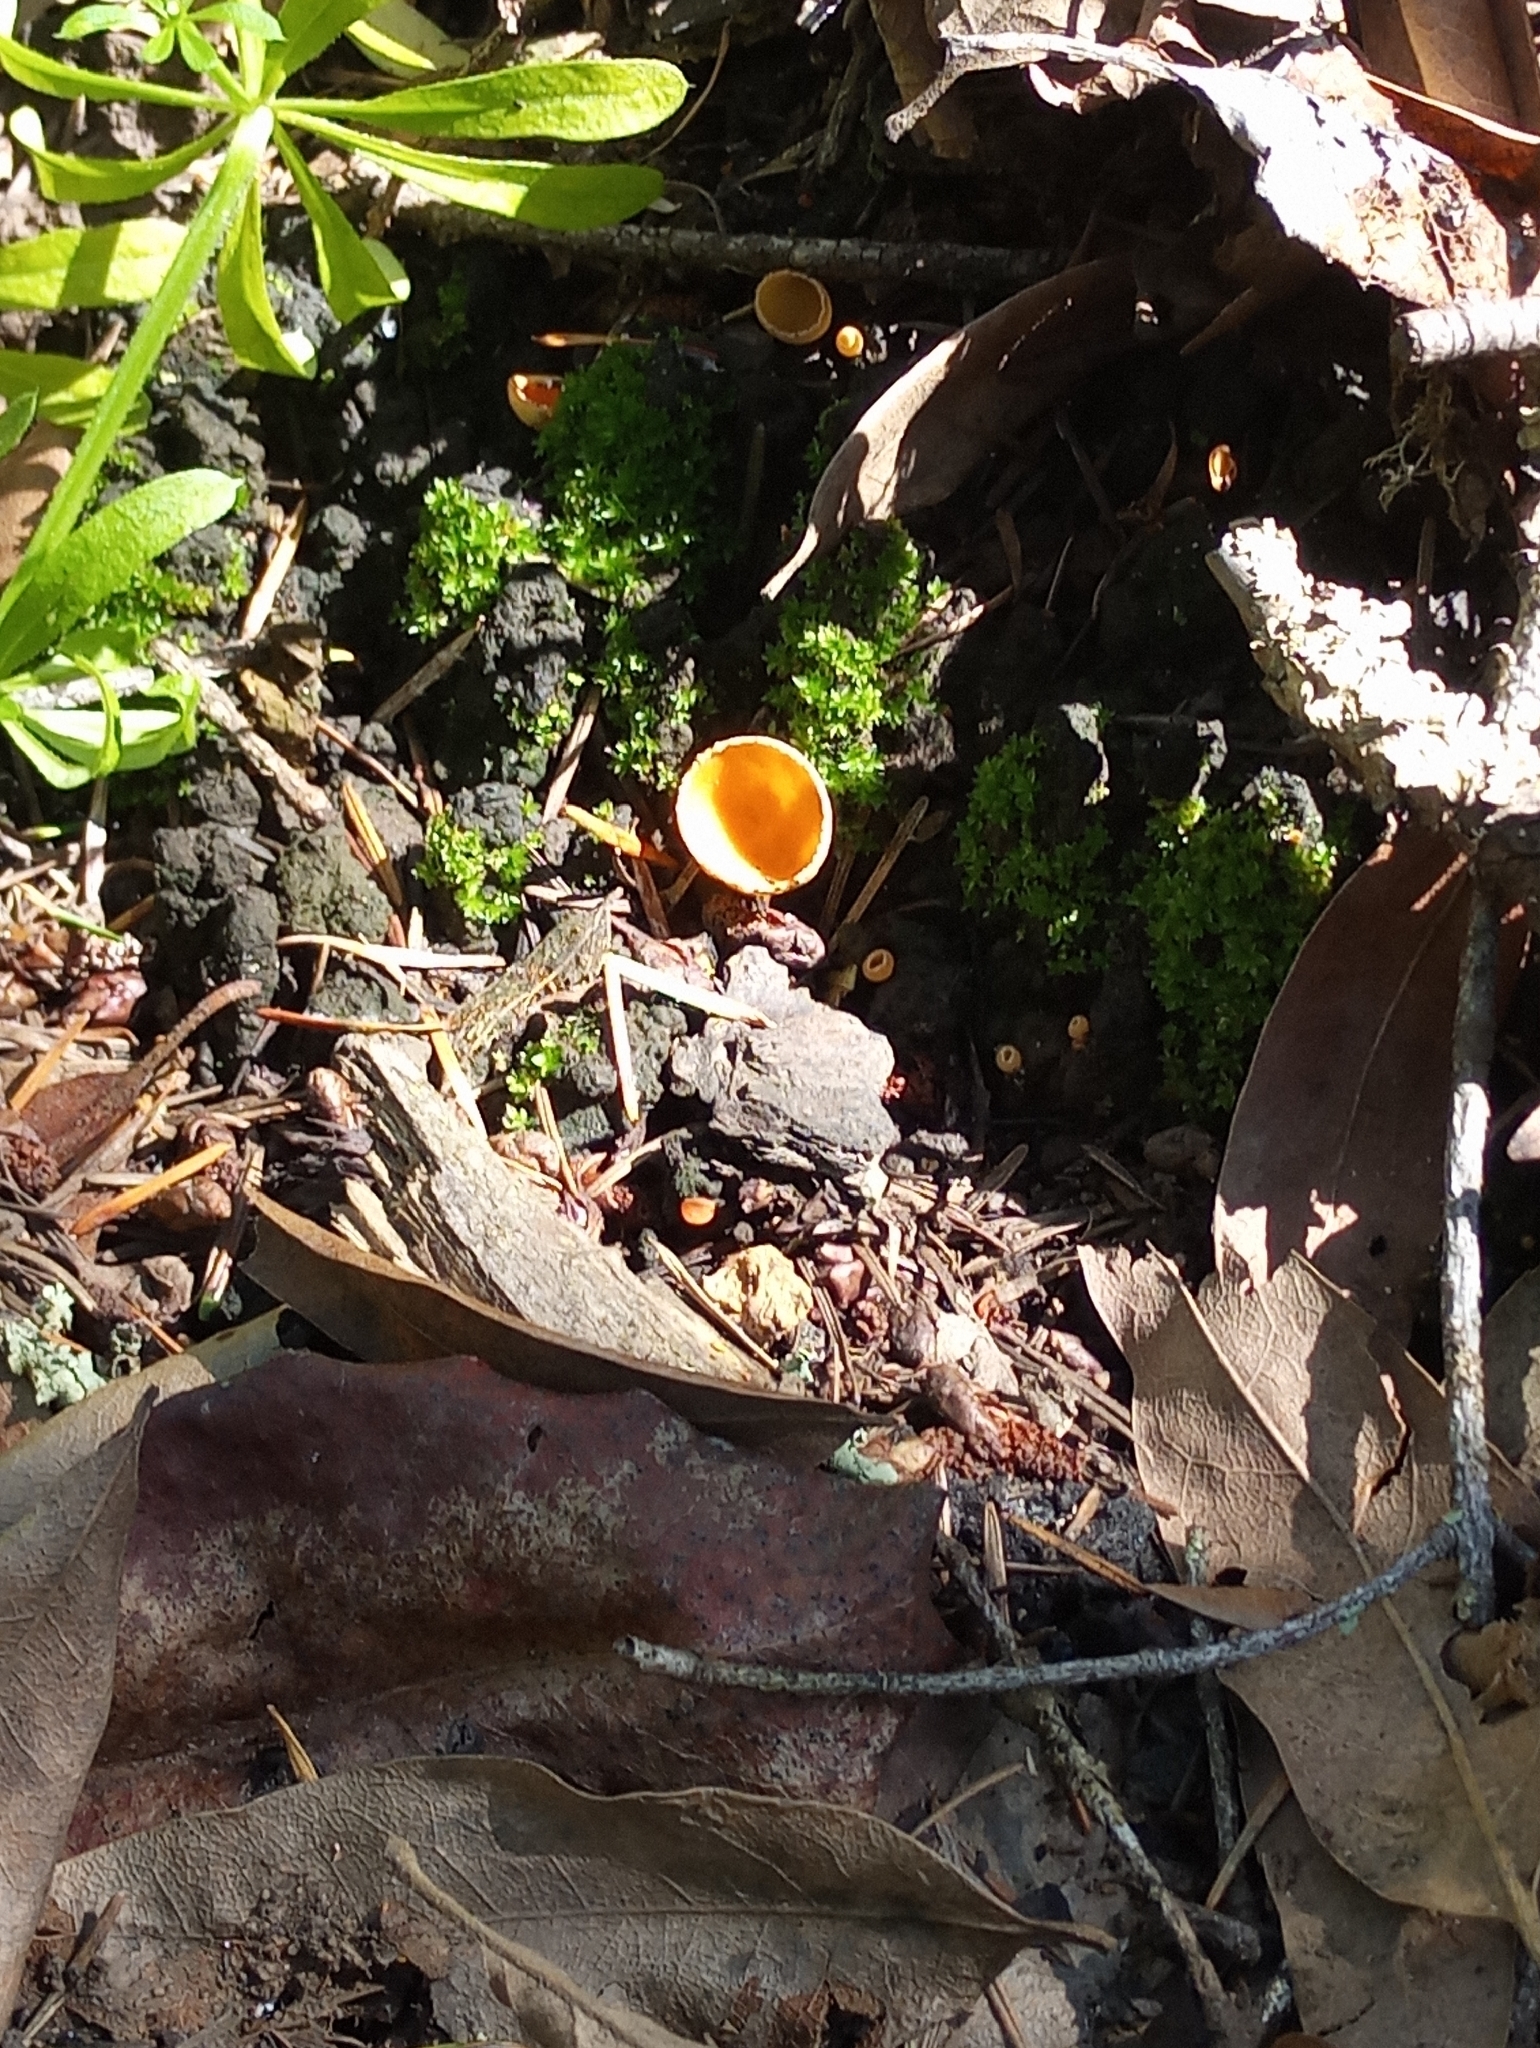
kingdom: Fungi
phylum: Ascomycota
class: Pezizomycetes
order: Pezizales
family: Pyronemataceae
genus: Geopyxis
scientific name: Geopyxis carbonaria
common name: Stalked bonfire cup
